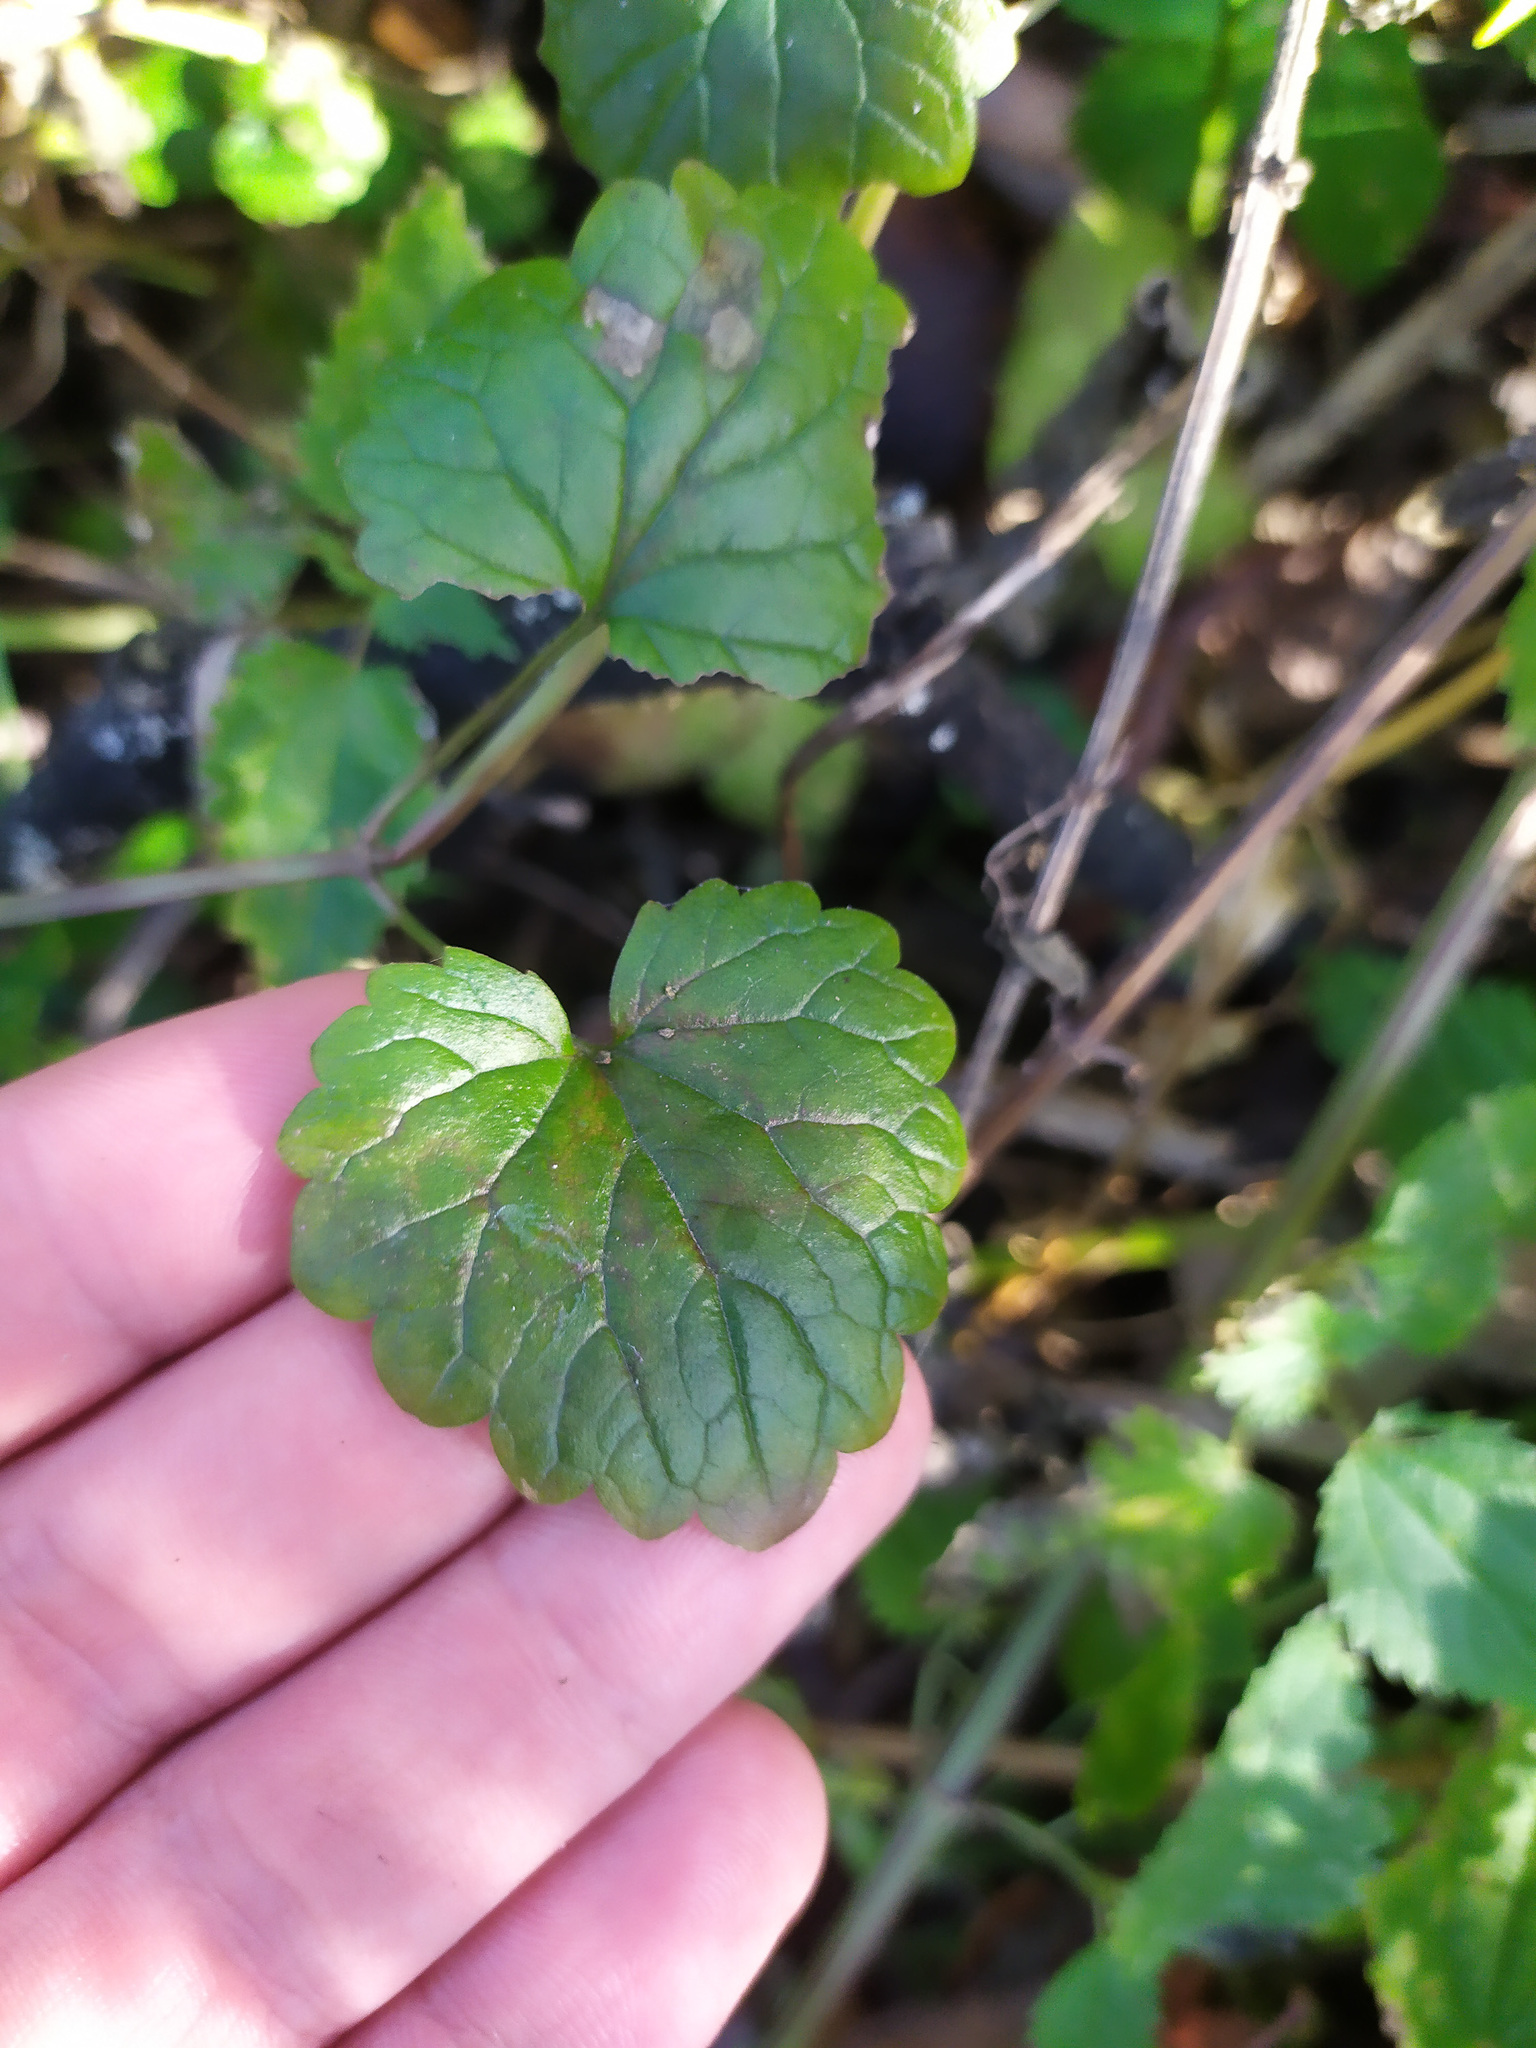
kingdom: Plantae
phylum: Tracheophyta
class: Magnoliopsida
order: Lamiales
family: Lamiaceae
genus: Glechoma
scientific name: Glechoma hederacea
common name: Ground ivy
